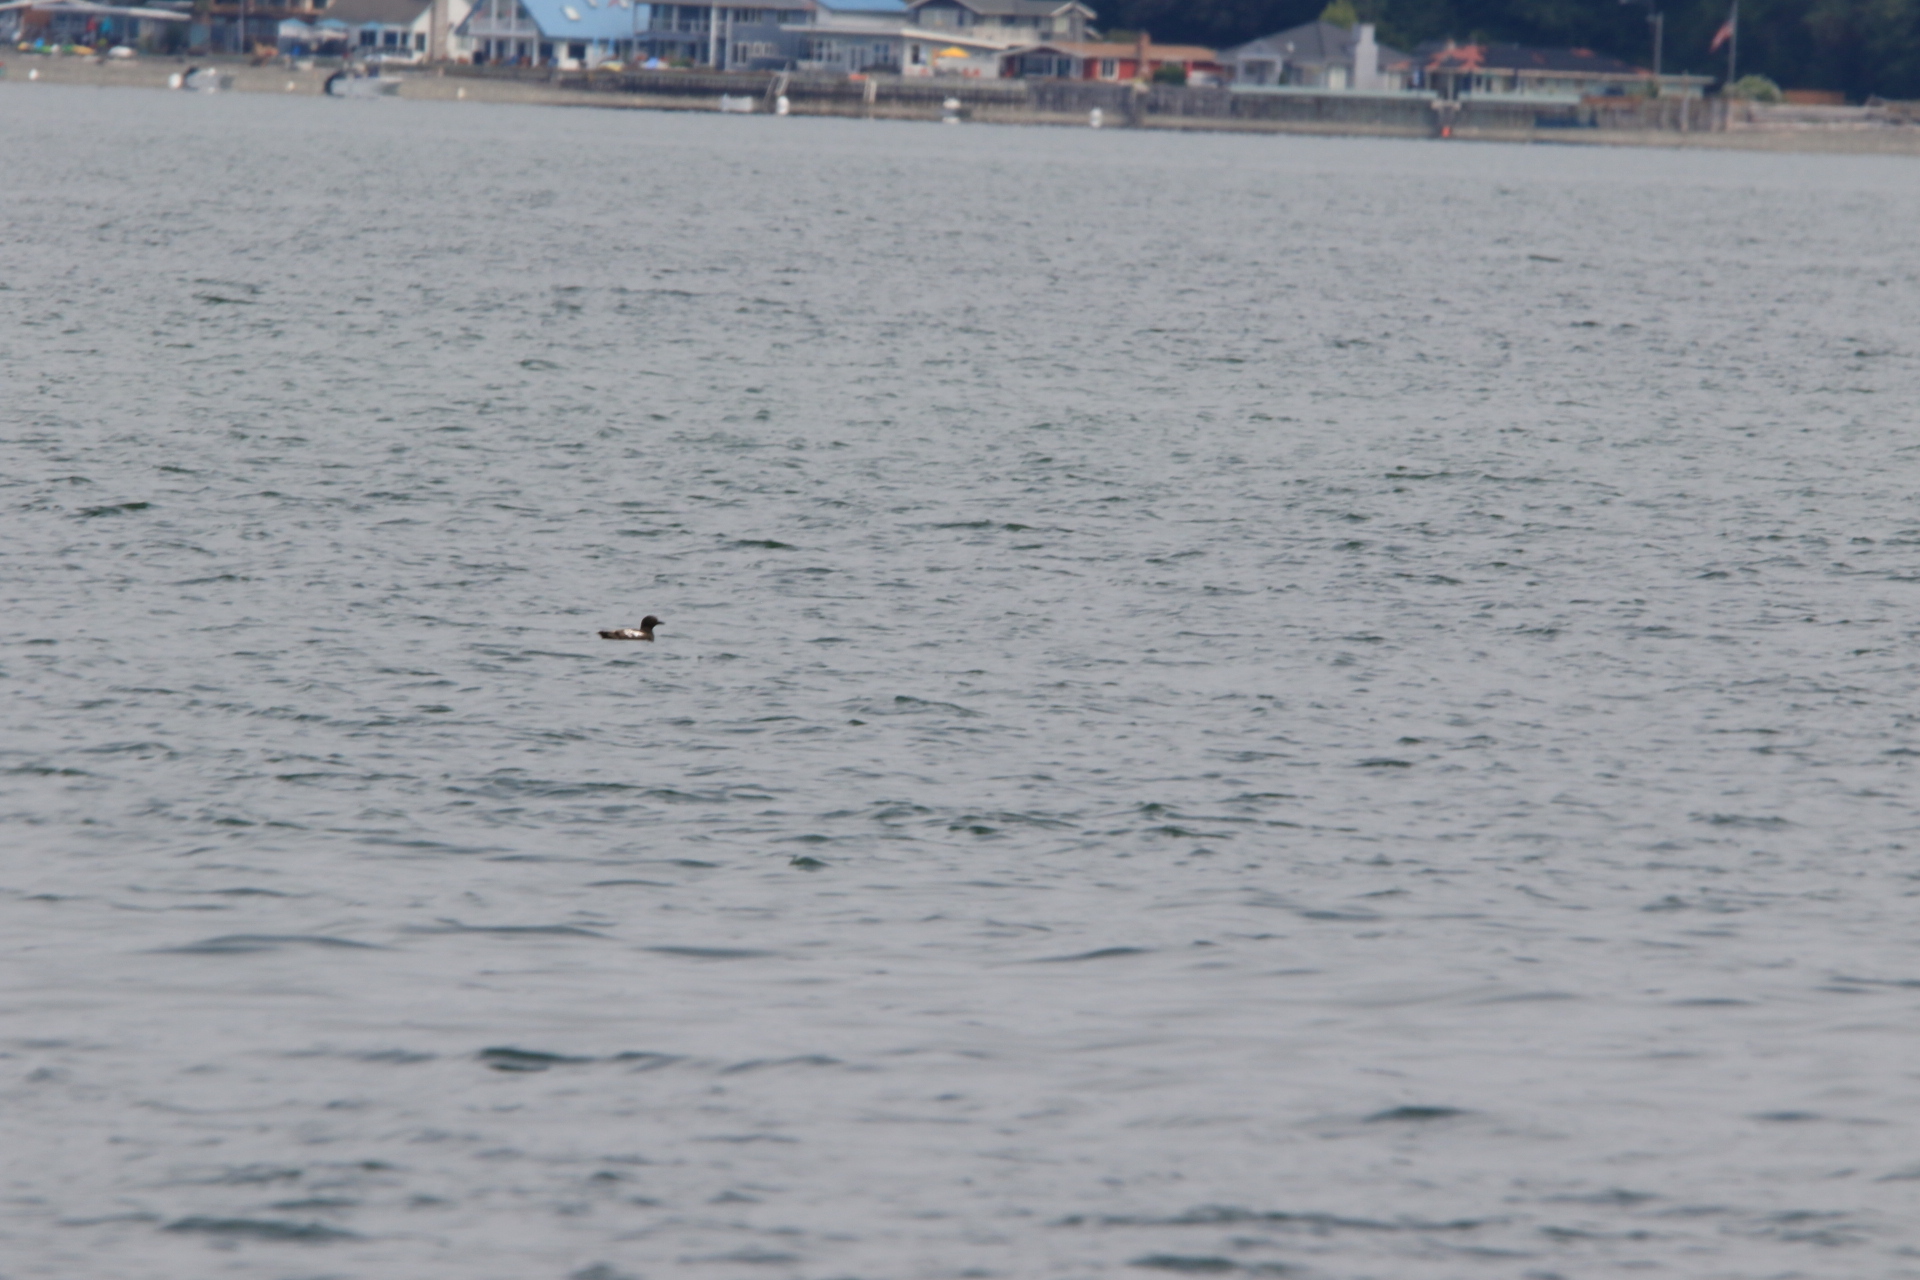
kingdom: Animalia
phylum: Chordata
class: Aves
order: Charadriiformes
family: Alcidae
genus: Cepphus
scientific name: Cepphus columba
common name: Pigeon guillemot
